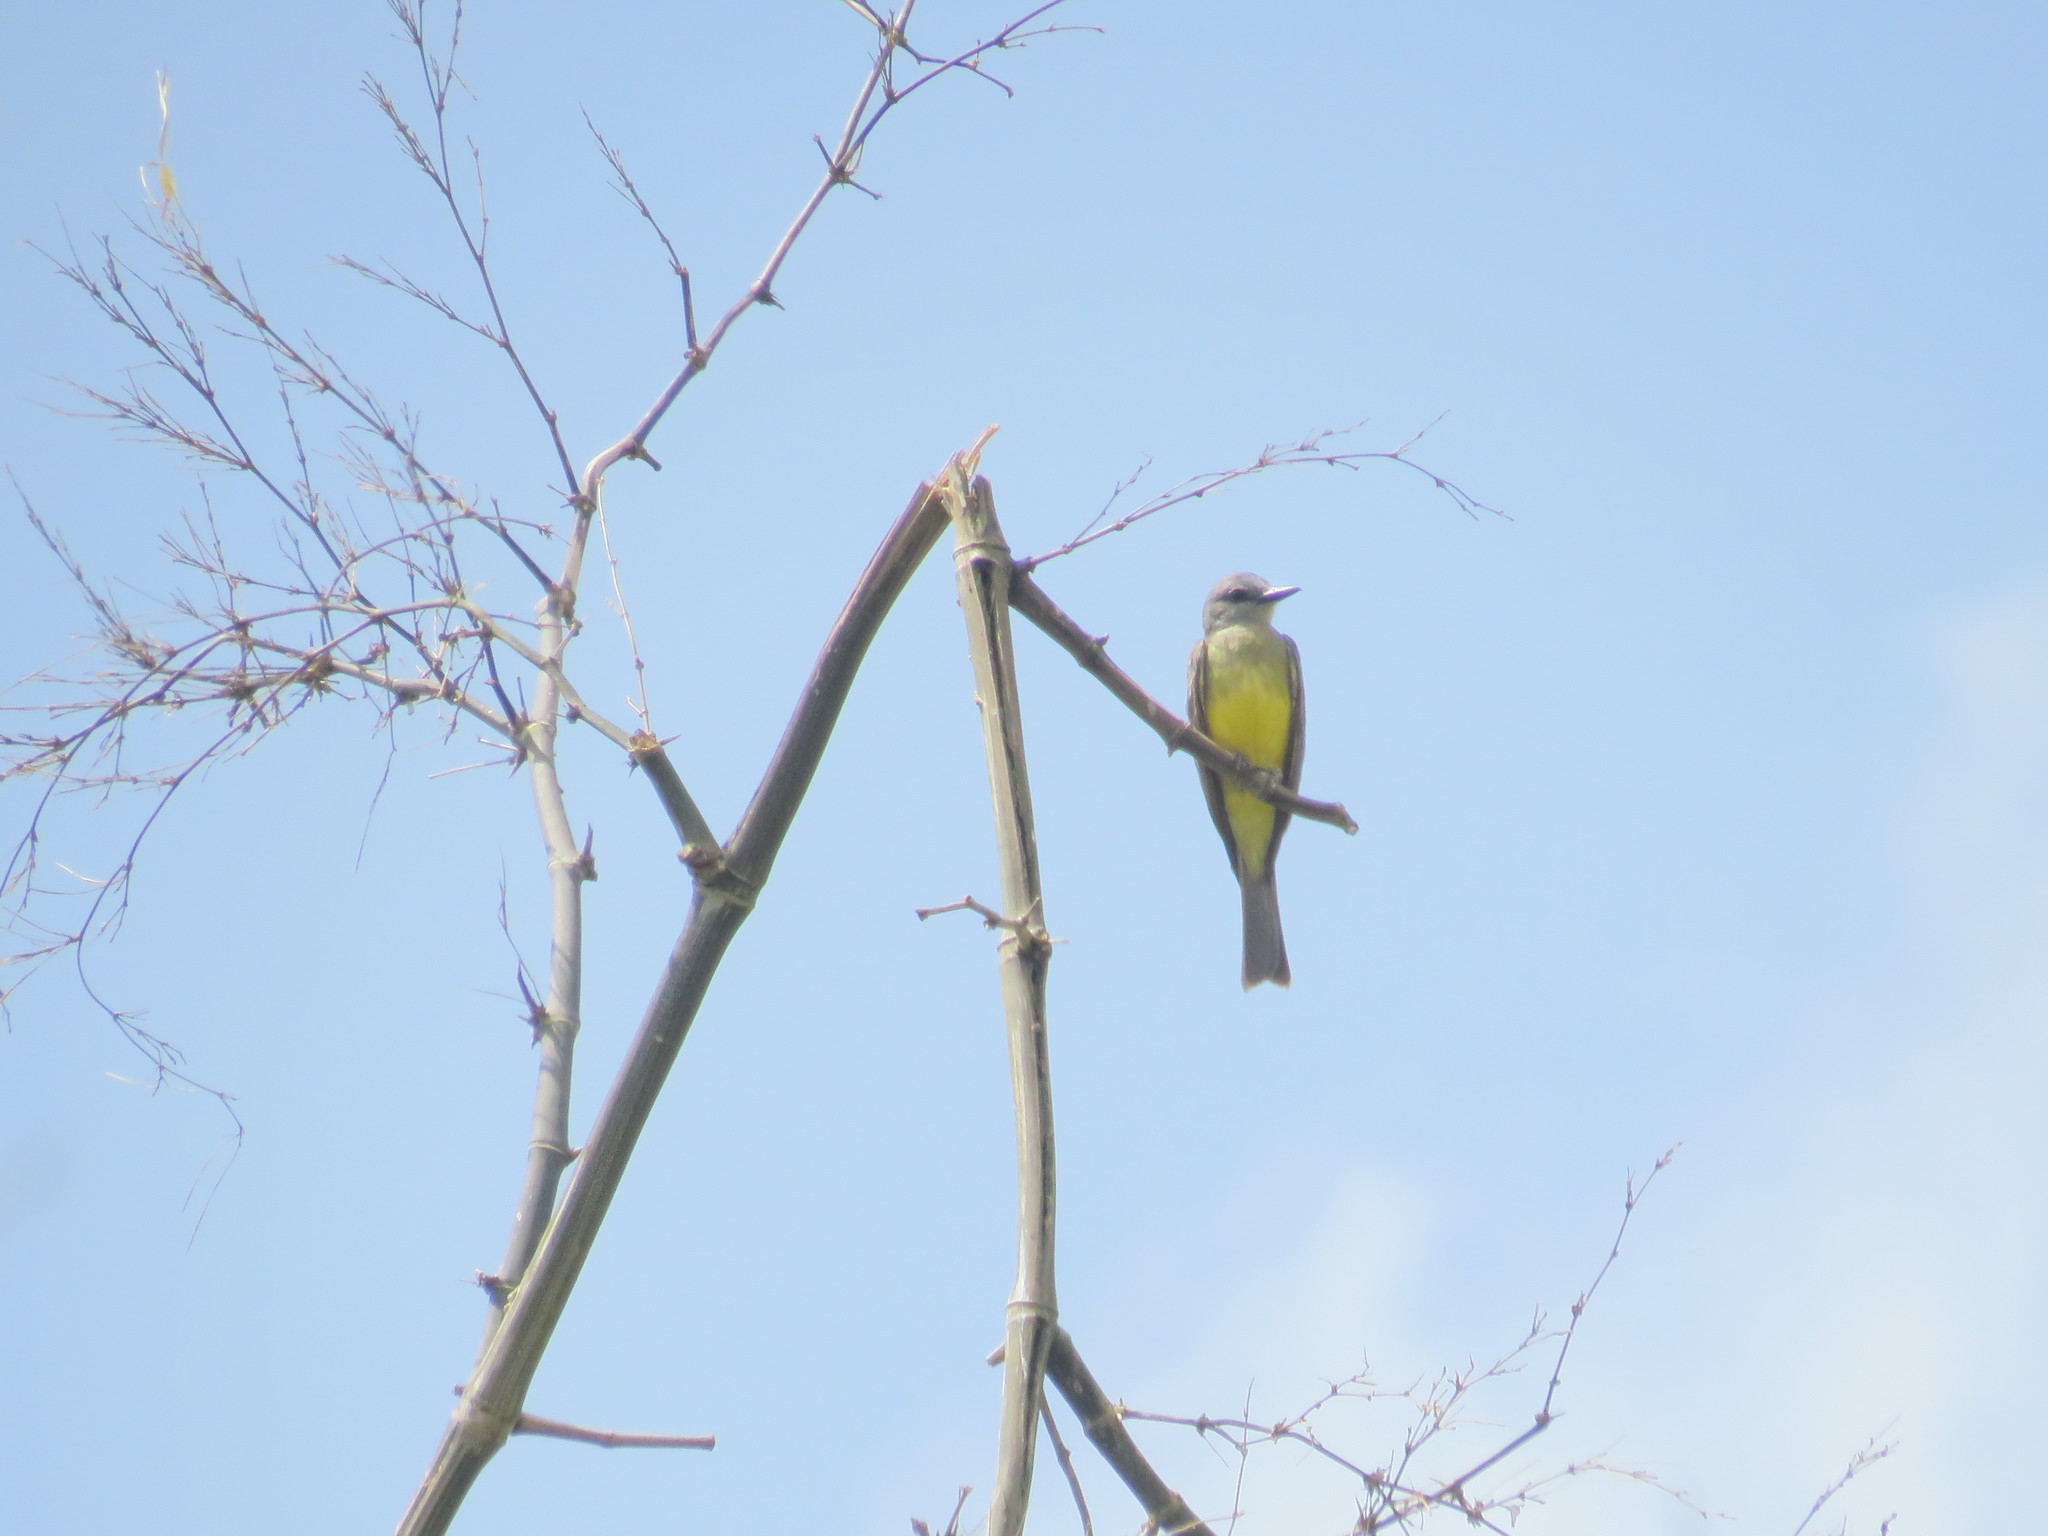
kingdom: Animalia
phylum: Chordata
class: Aves
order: Passeriformes
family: Tyrannidae
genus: Tyrannus
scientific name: Tyrannus melancholicus
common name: Tropical kingbird
